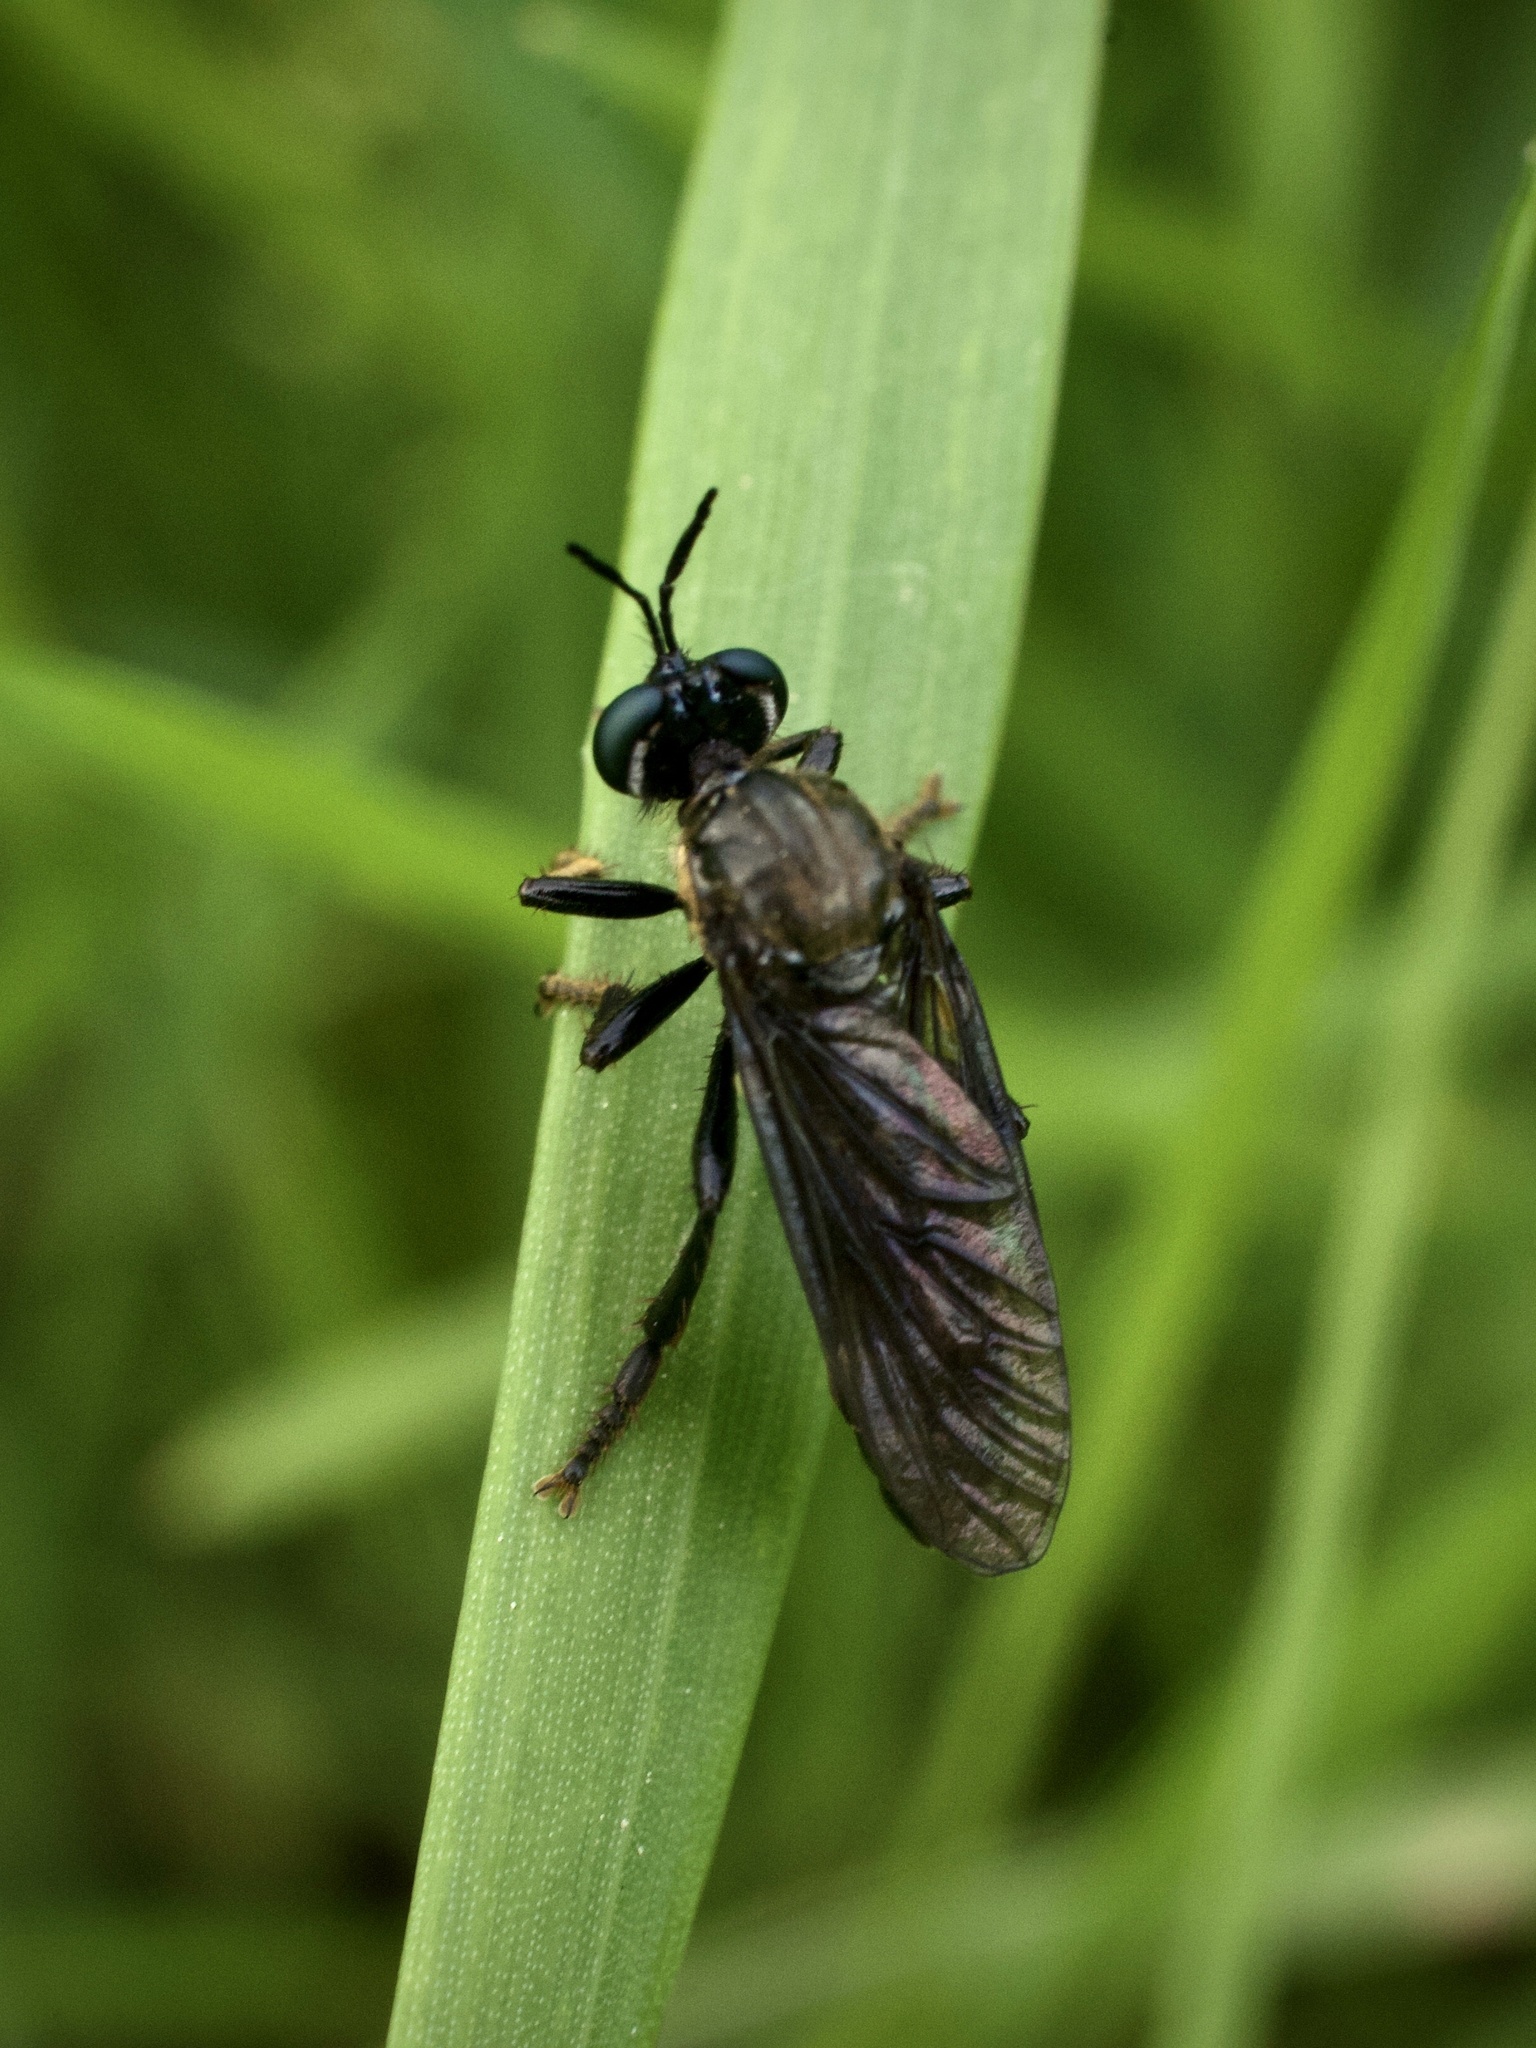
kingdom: Animalia
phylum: Arthropoda
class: Insecta
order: Diptera
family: Asilidae
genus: Dioctria
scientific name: Dioctria atricapilla
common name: Violet black-legged
